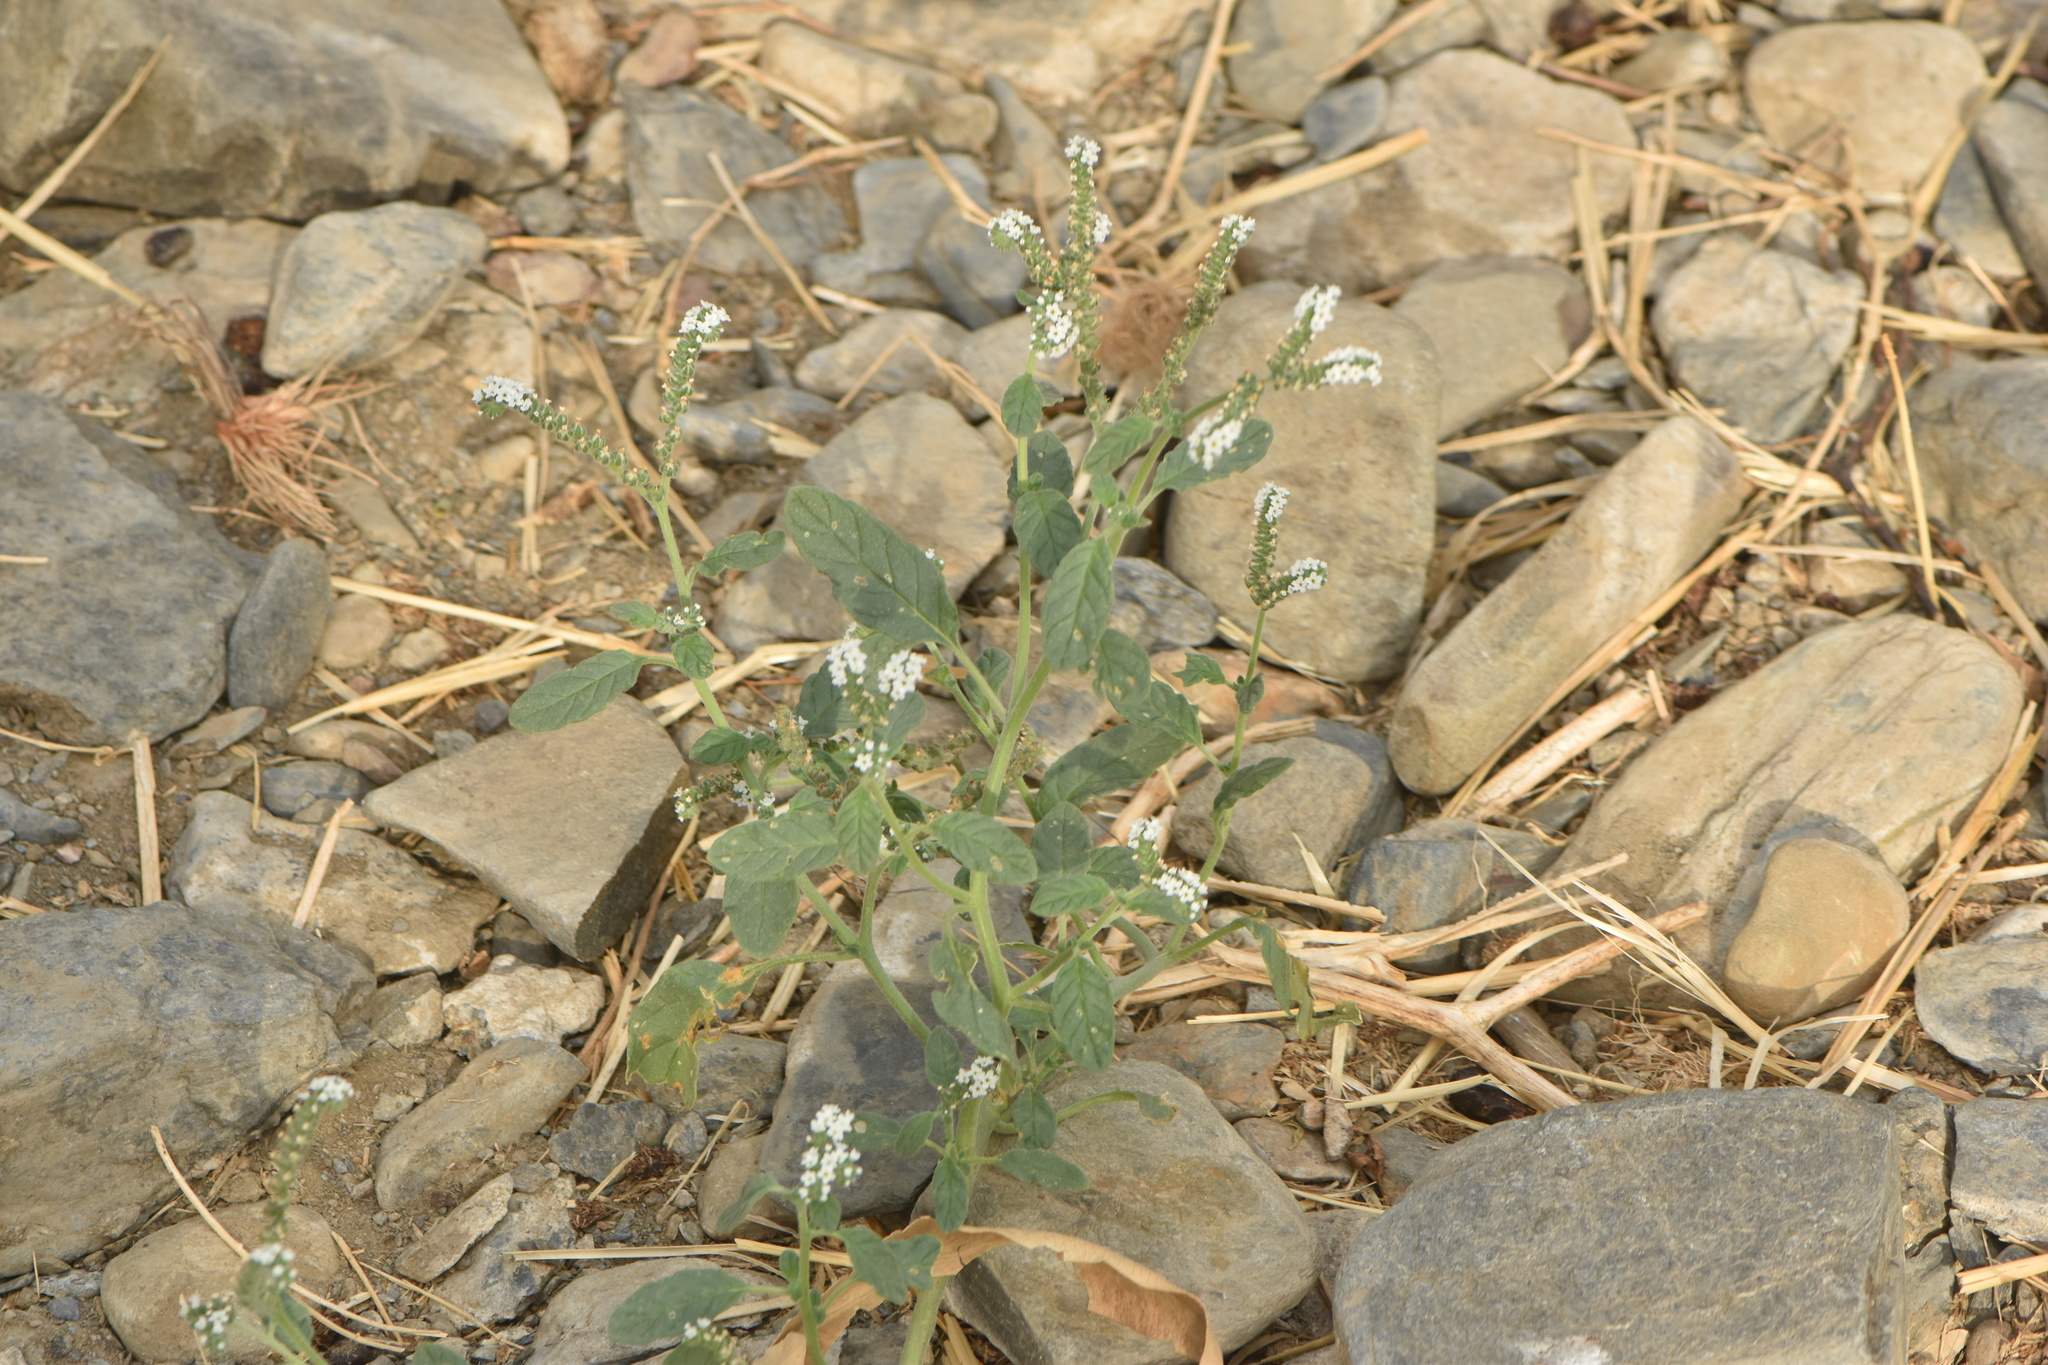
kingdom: Plantae
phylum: Tracheophyta
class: Magnoliopsida
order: Boraginales
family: Heliotropiaceae
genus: Heliotropium
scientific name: Heliotropium europaeum
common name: European heliotrope
